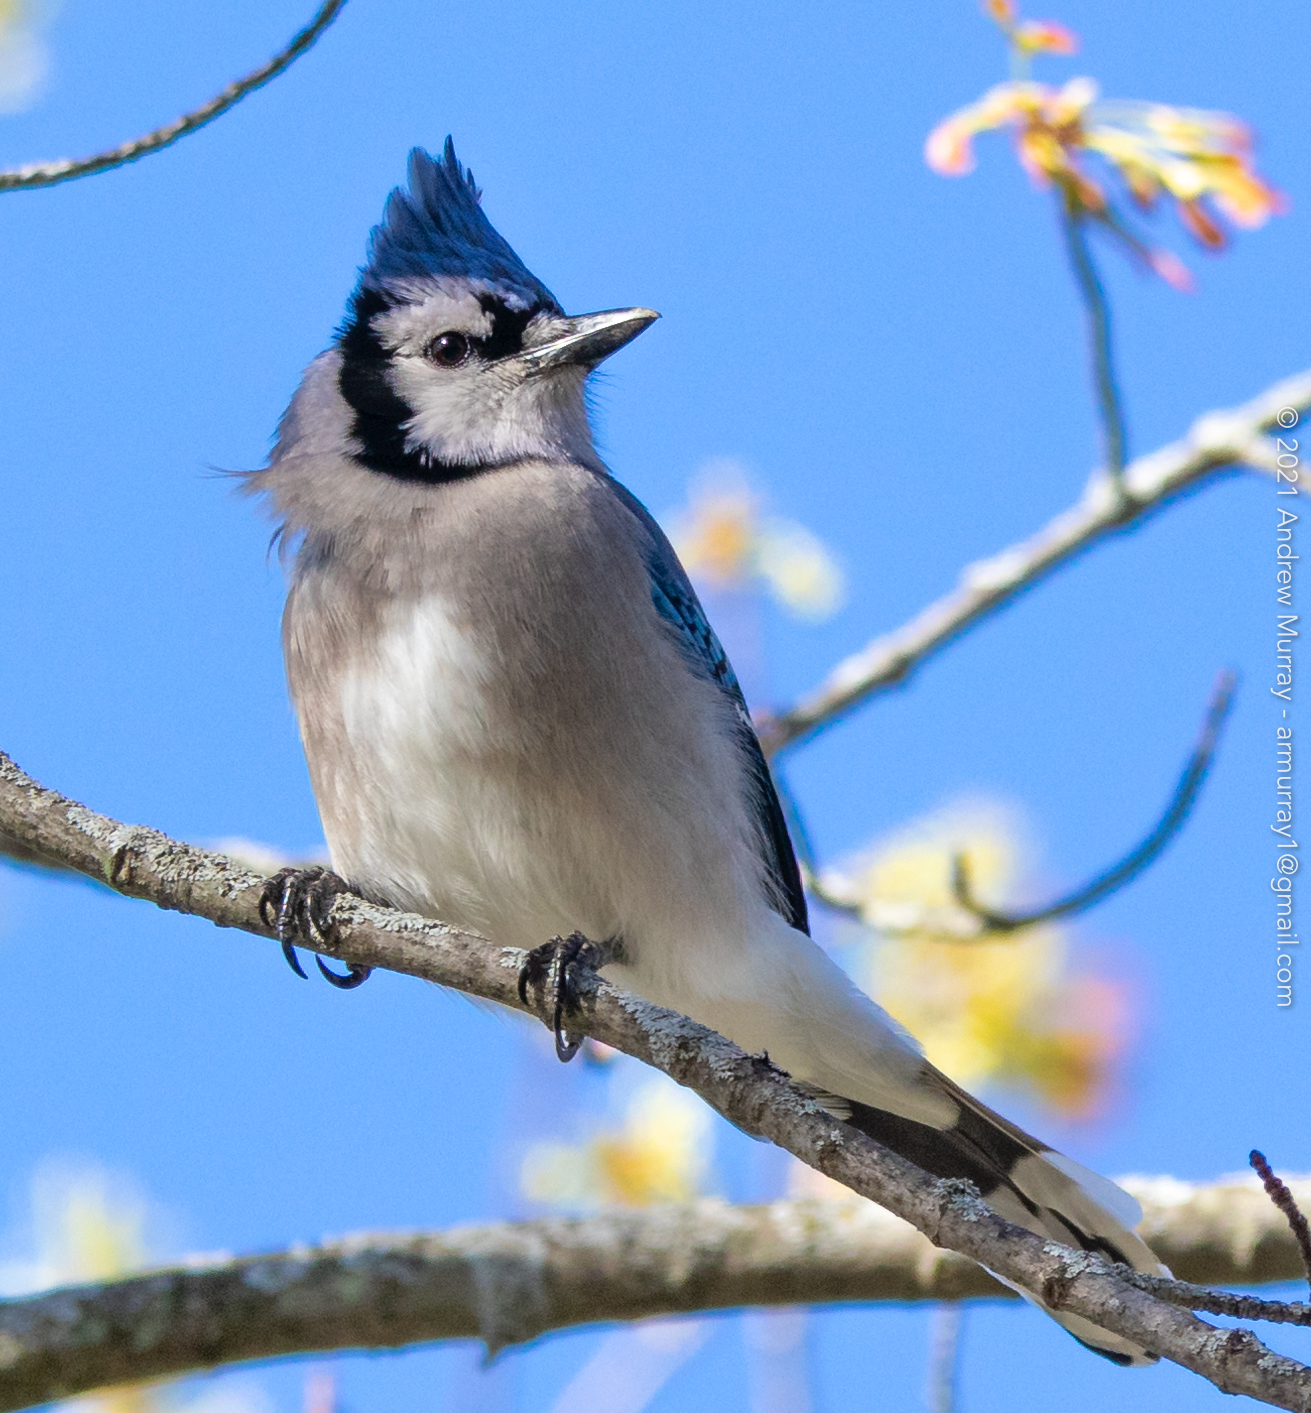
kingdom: Animalia
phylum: Chordata
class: Aves
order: Passeriformes
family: Corvidae
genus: Cyanocitta
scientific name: Cyanocitta cristata
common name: Blue jay
